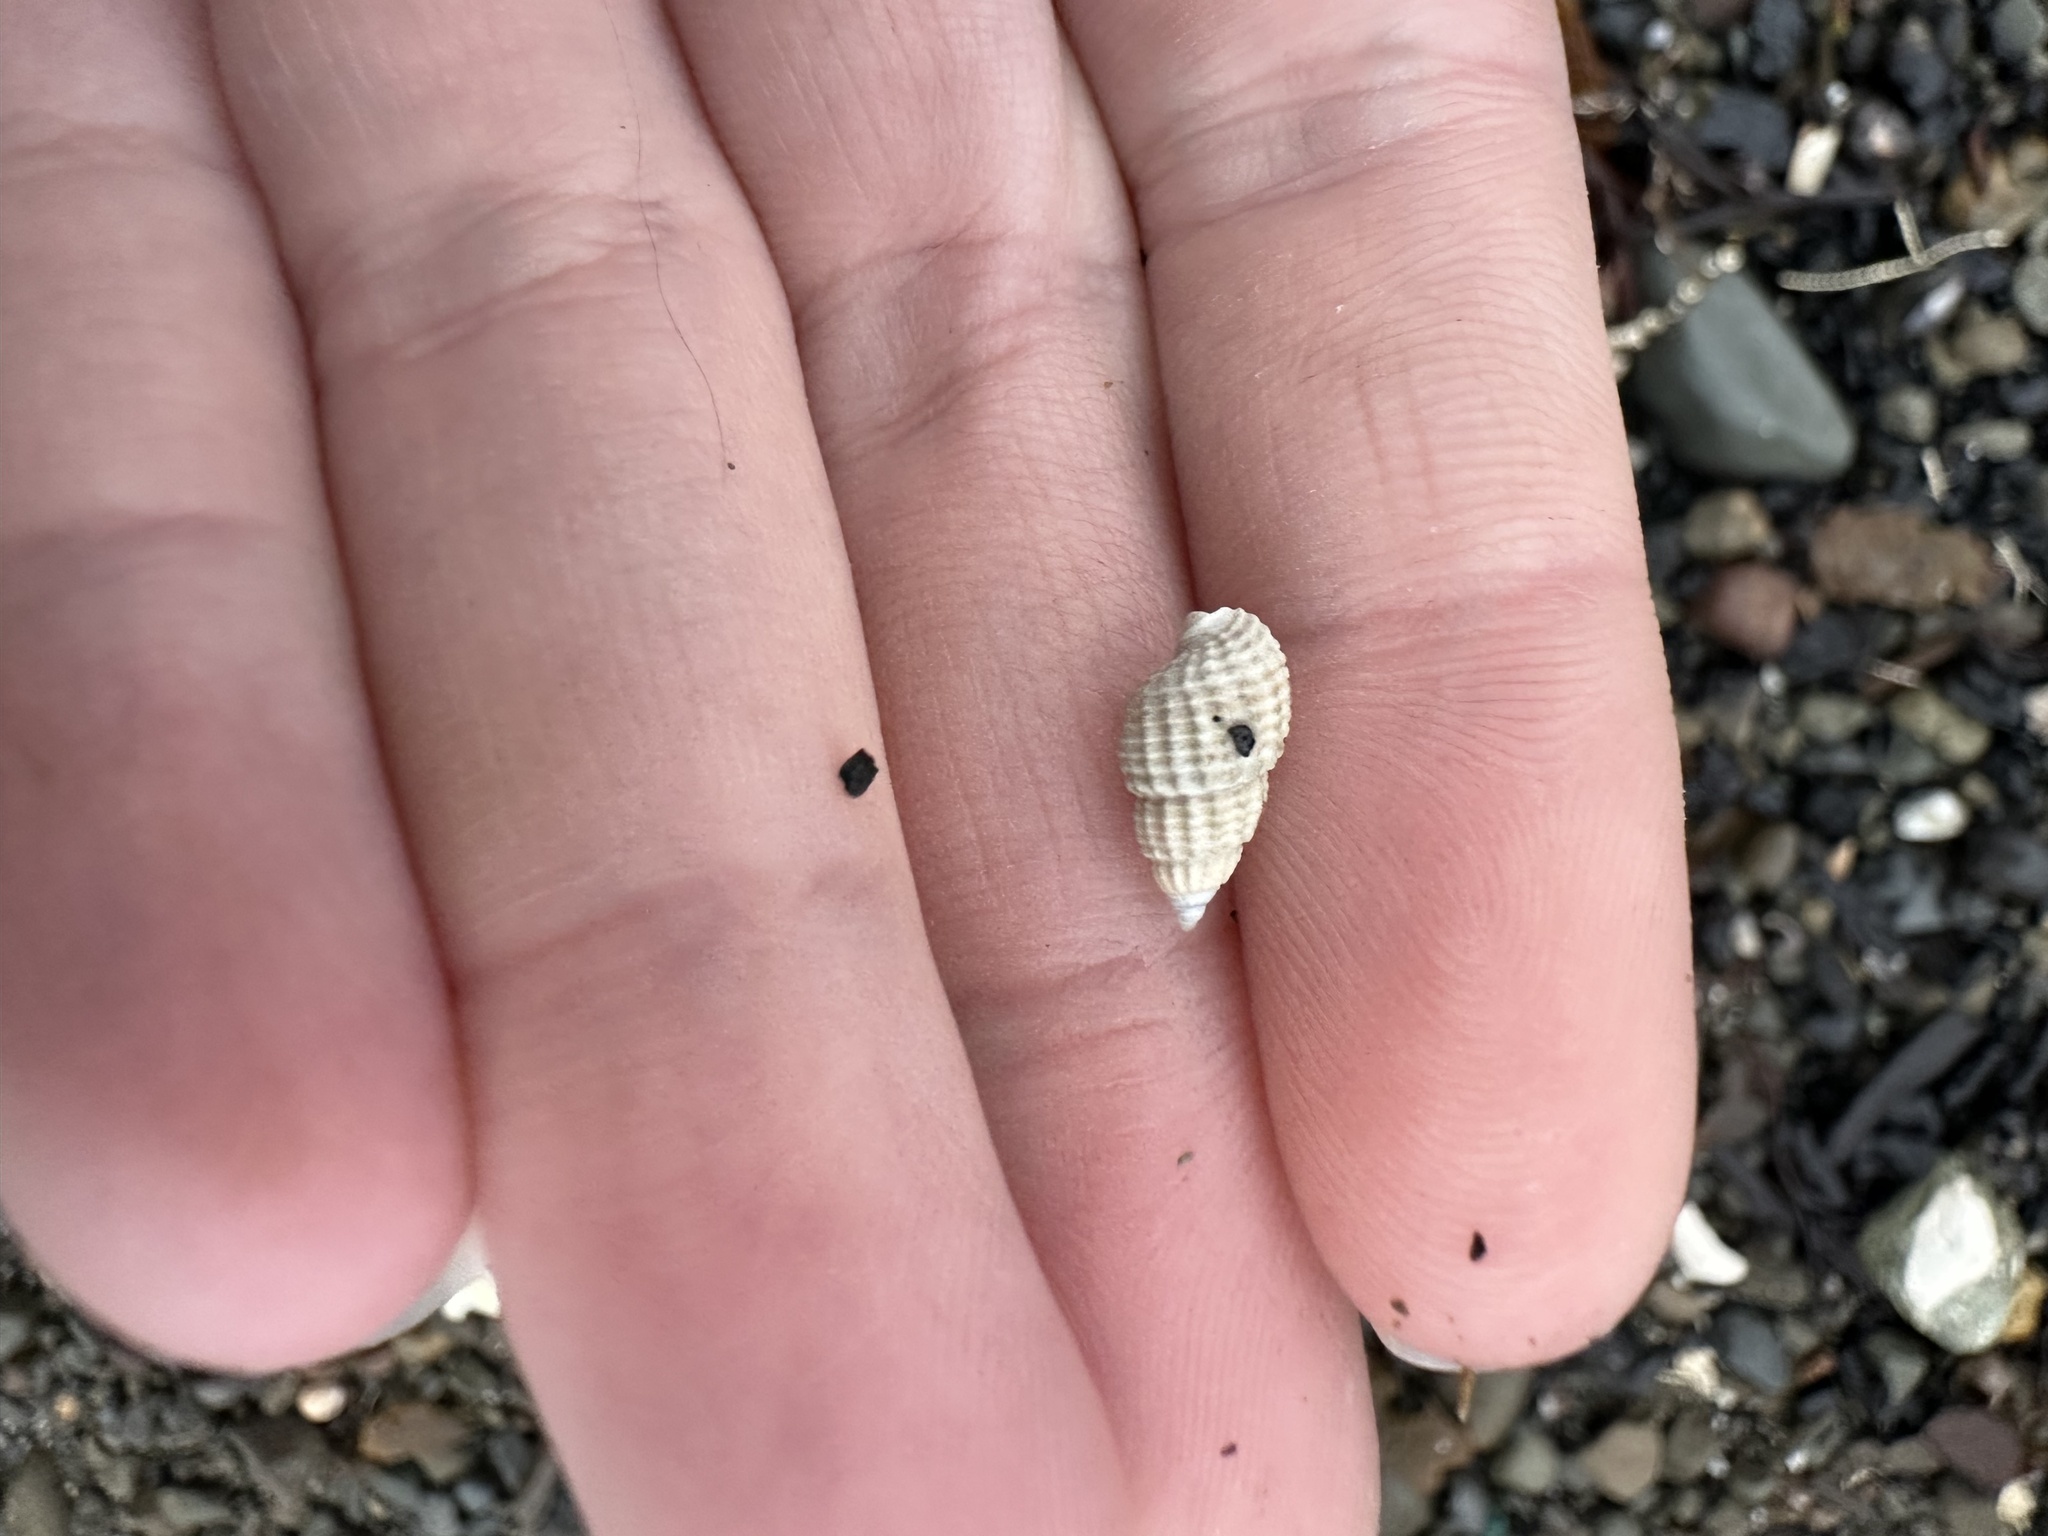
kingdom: Animalia
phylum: Mollusca
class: Gastropoda
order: Neogastropoda
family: Nassariidae
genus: Ilyanassa
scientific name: Ilyanassa trivittata
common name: Three-line mudsnail
